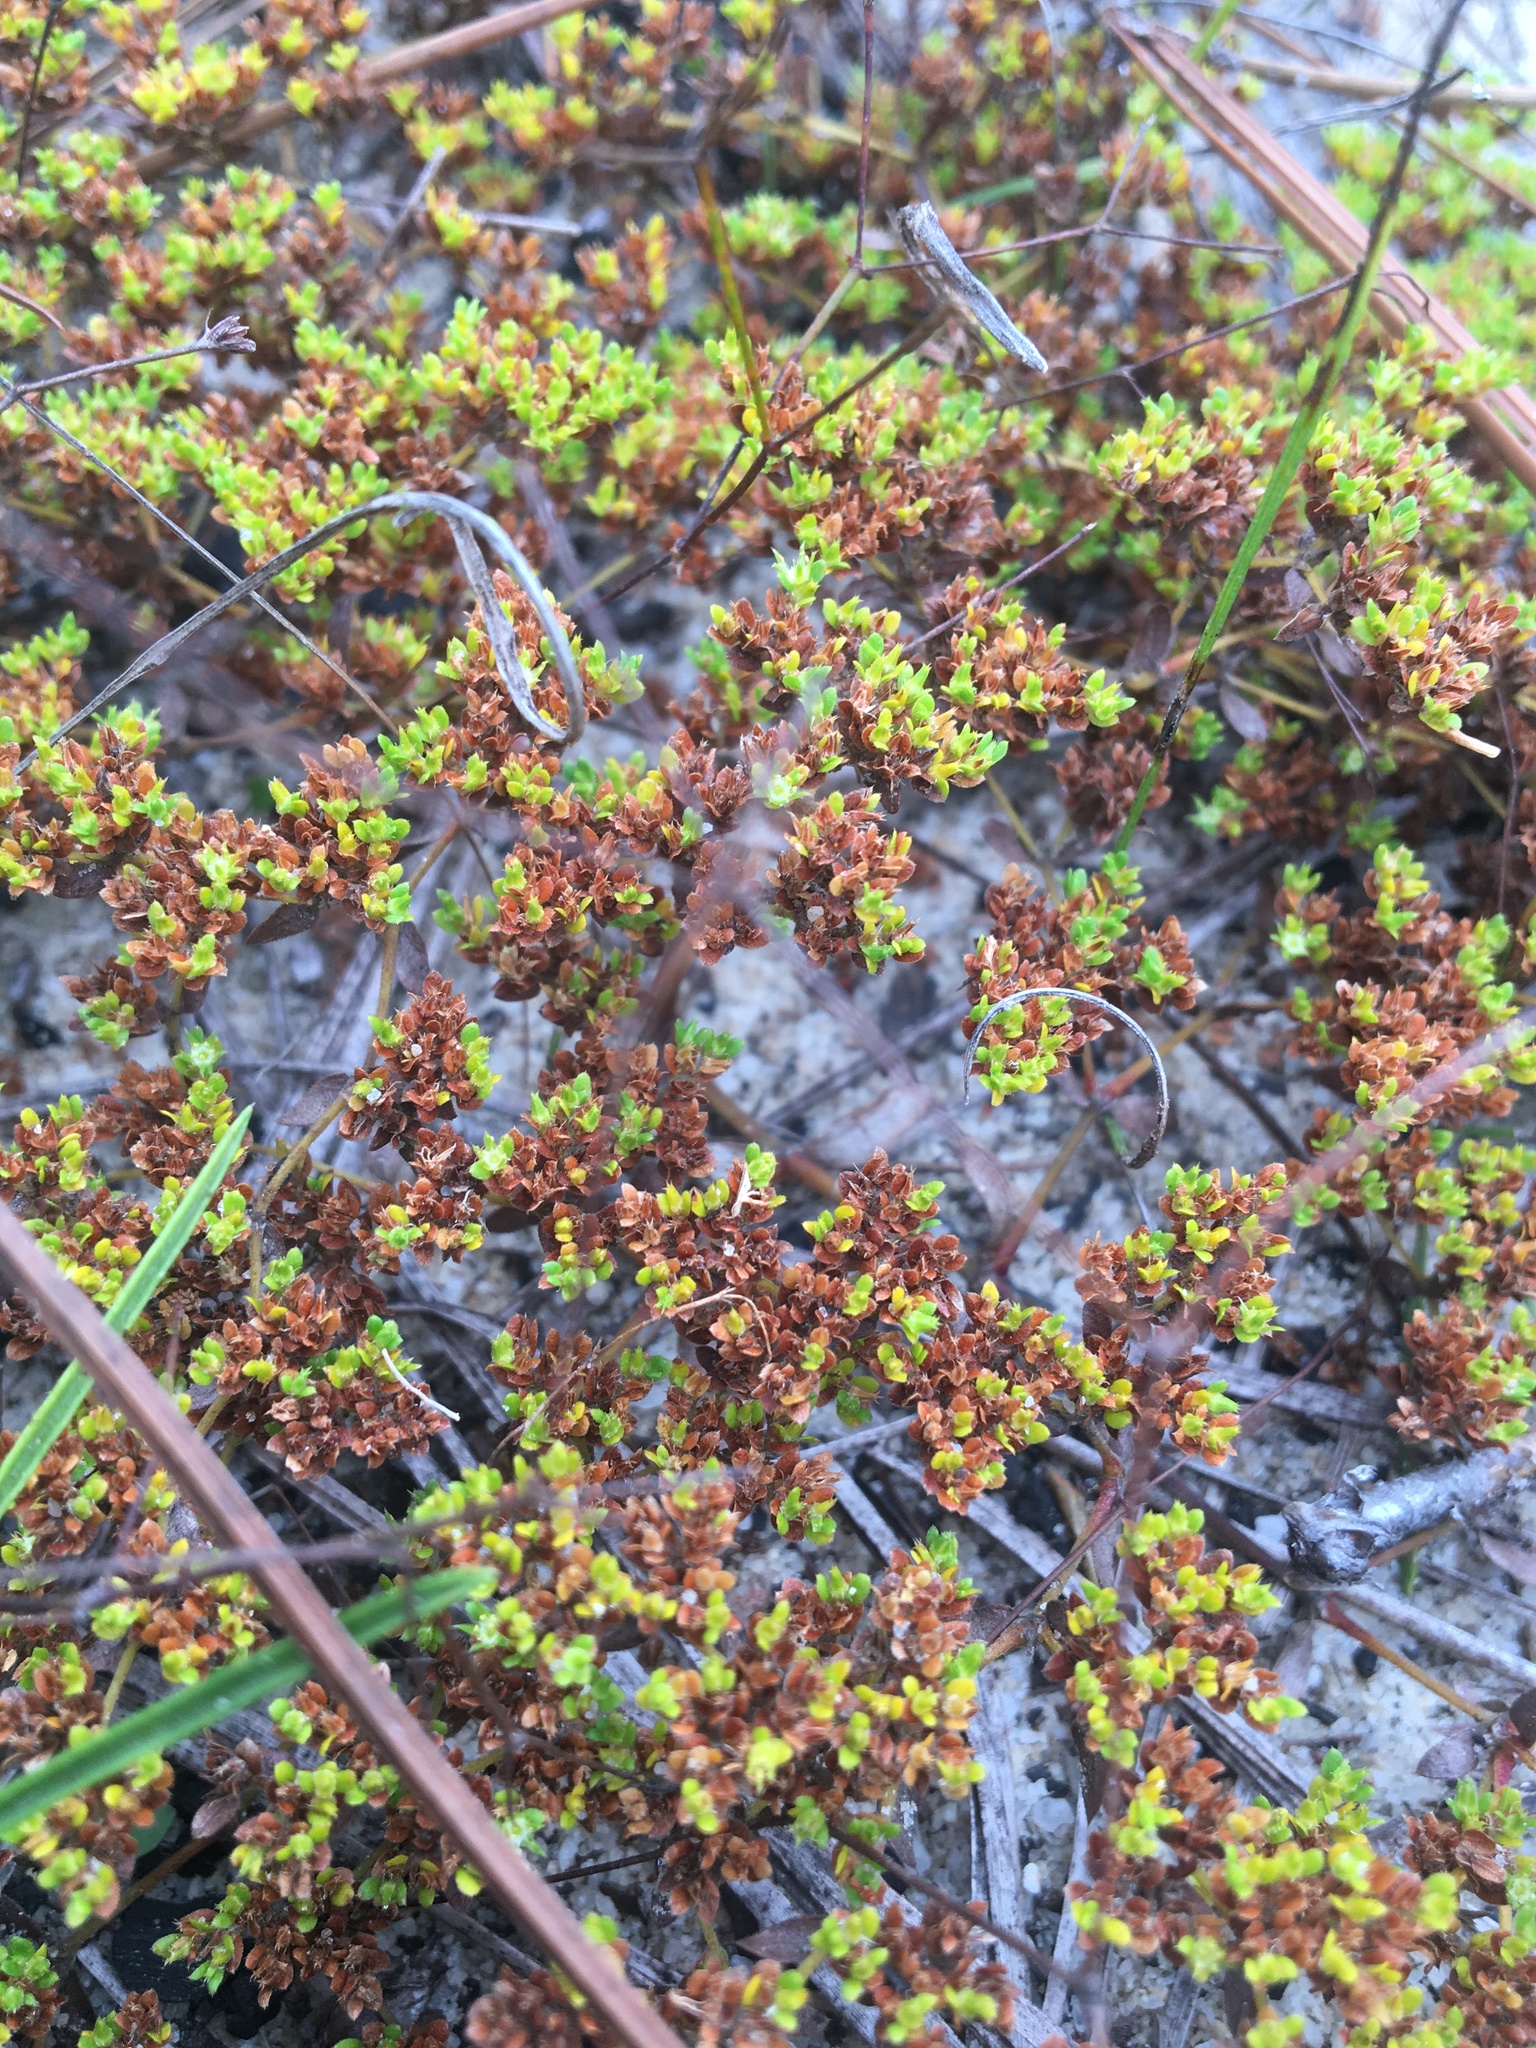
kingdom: Plantae
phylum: Tracheophyta
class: Magnoliopsida
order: Caryophyllales
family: Caryophyllaceae
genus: Paronychia
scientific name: Paronychia herniarioides
